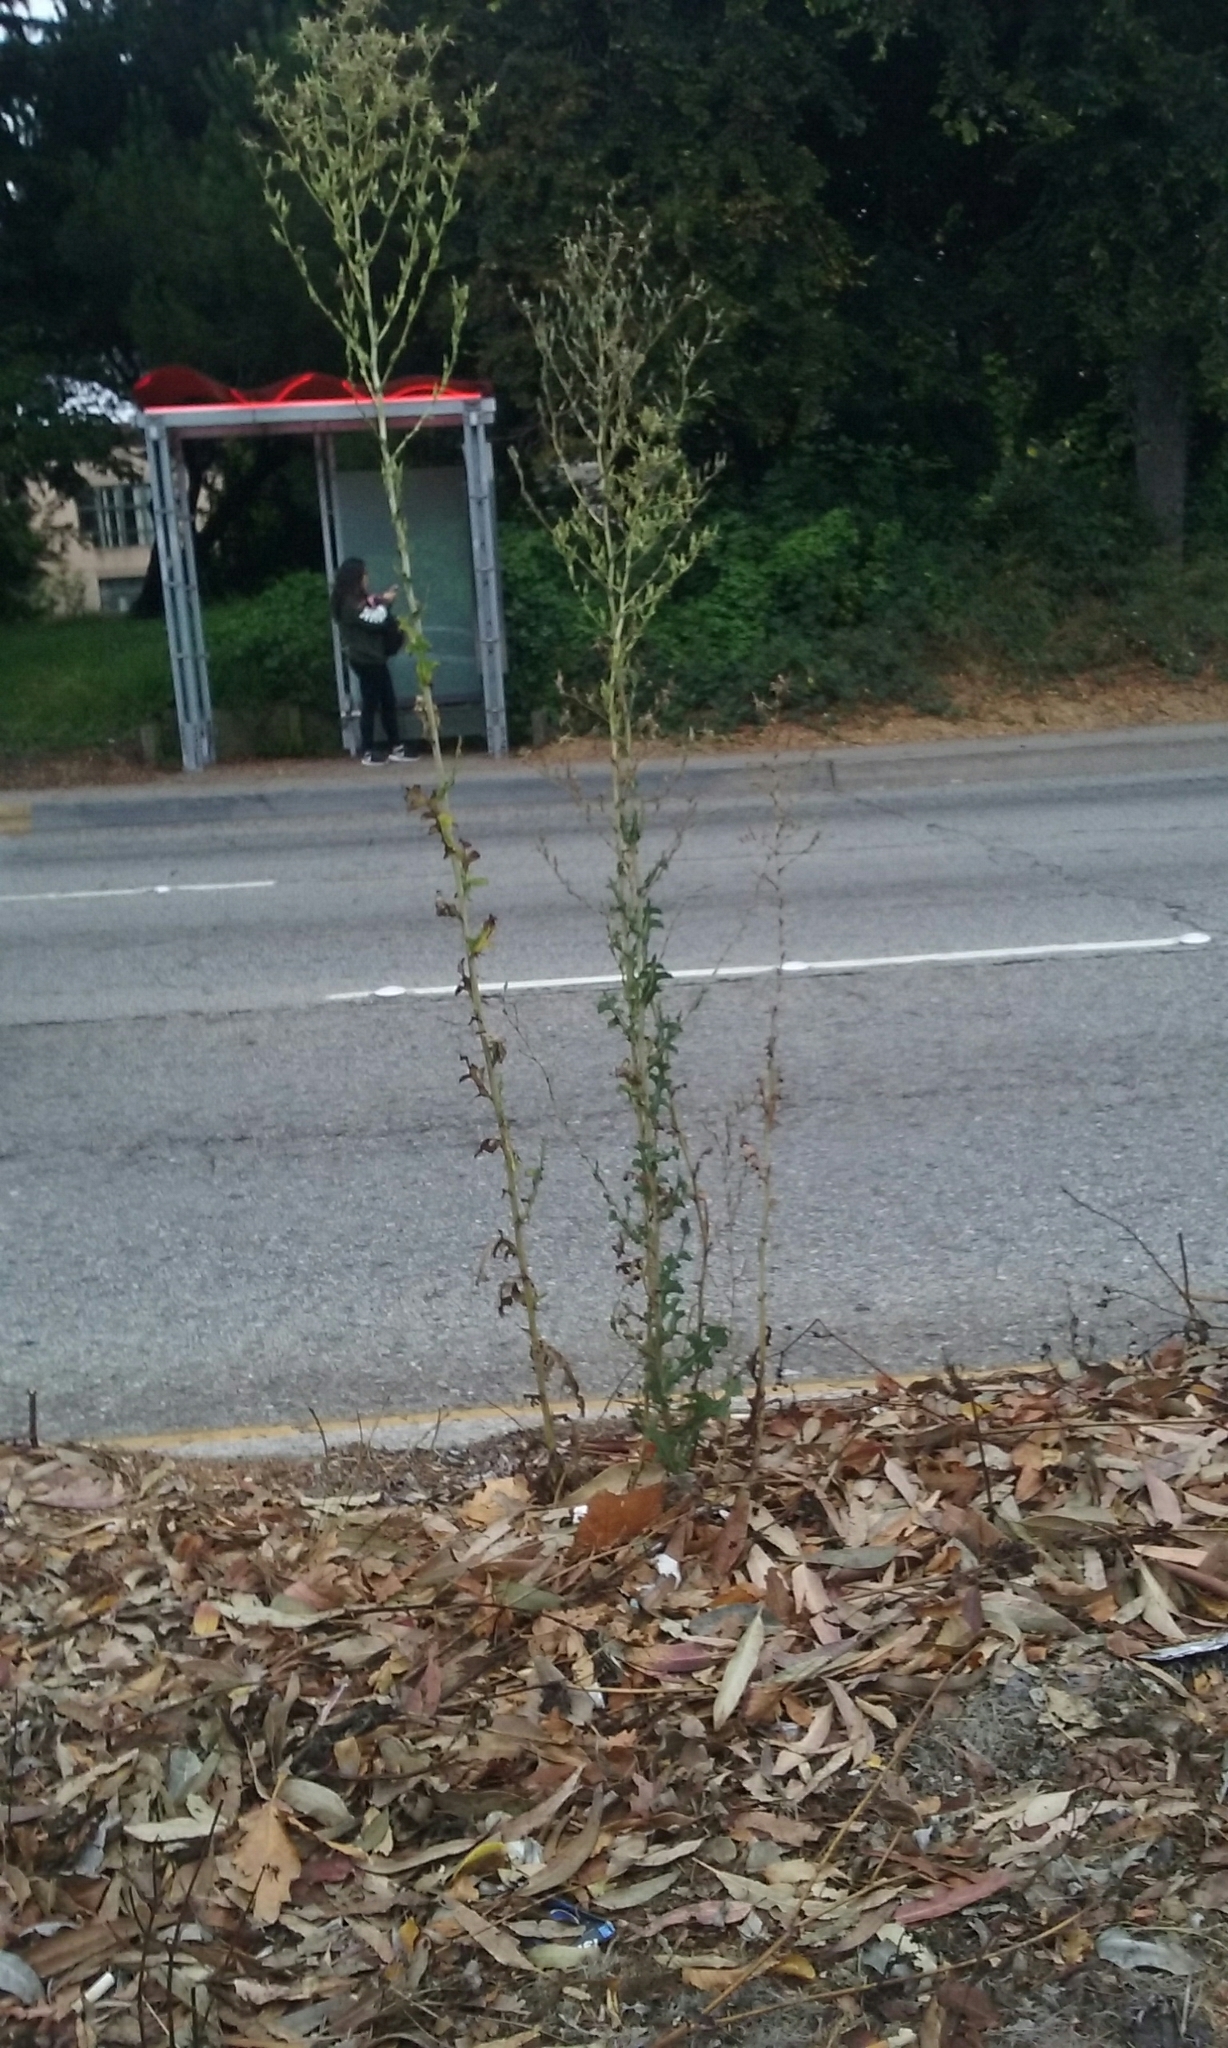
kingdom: Plantae
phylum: Tracheophyta
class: Magnoliopsida
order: Asterales
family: Asteraceae
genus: Lactuca
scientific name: Lactuca serriola
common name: Prickly lettuce
